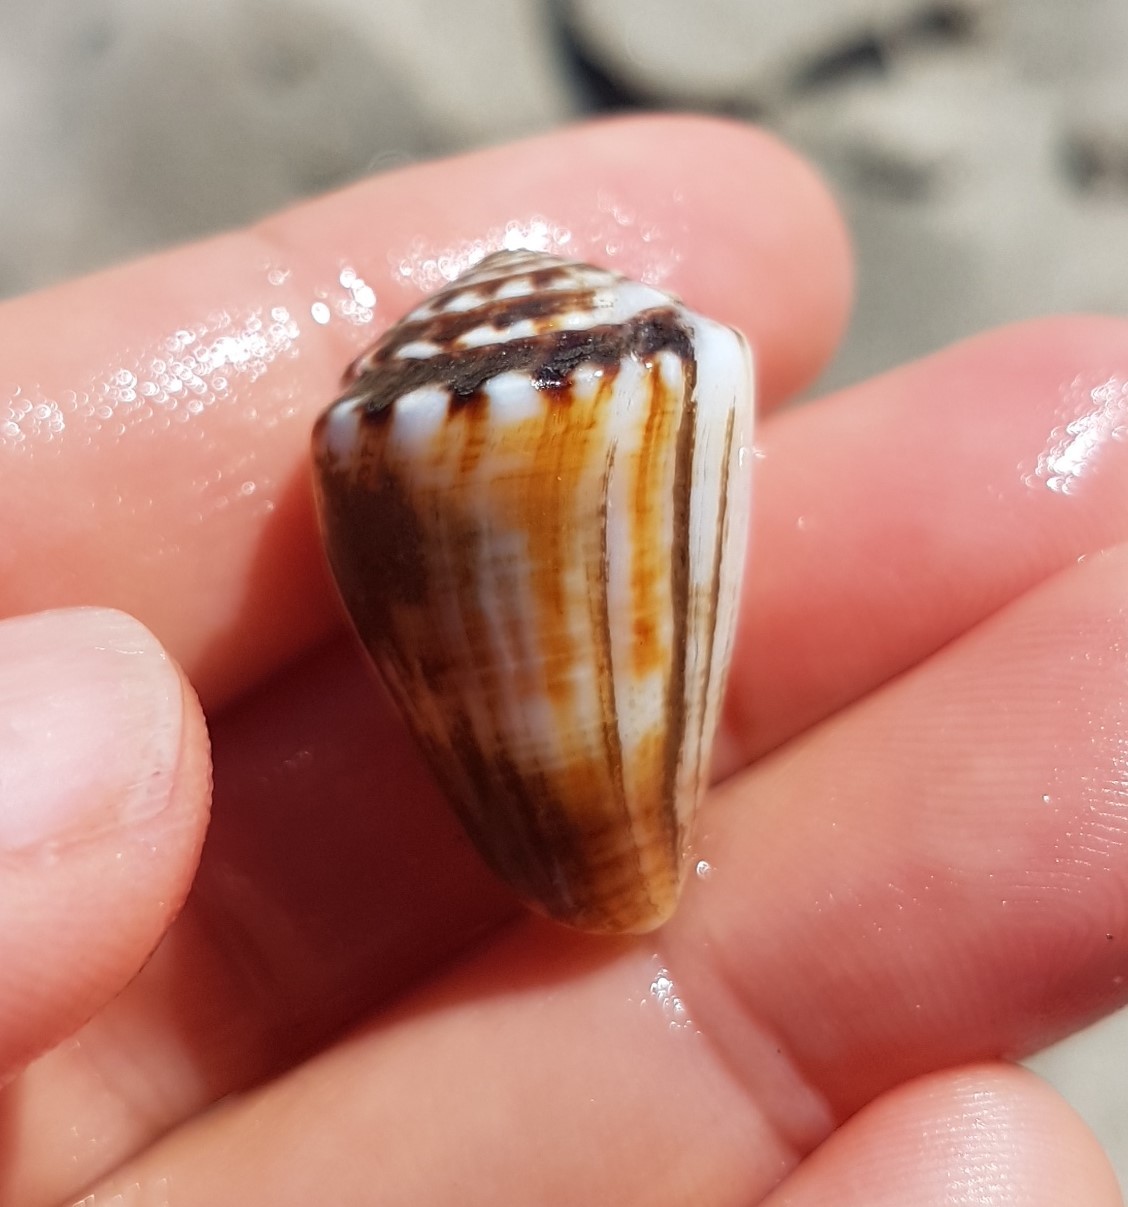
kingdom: Animalia
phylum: Mollusca
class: Gastropoda
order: Neogastropoda
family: Conidae
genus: Conus
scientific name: Conus gladiator
